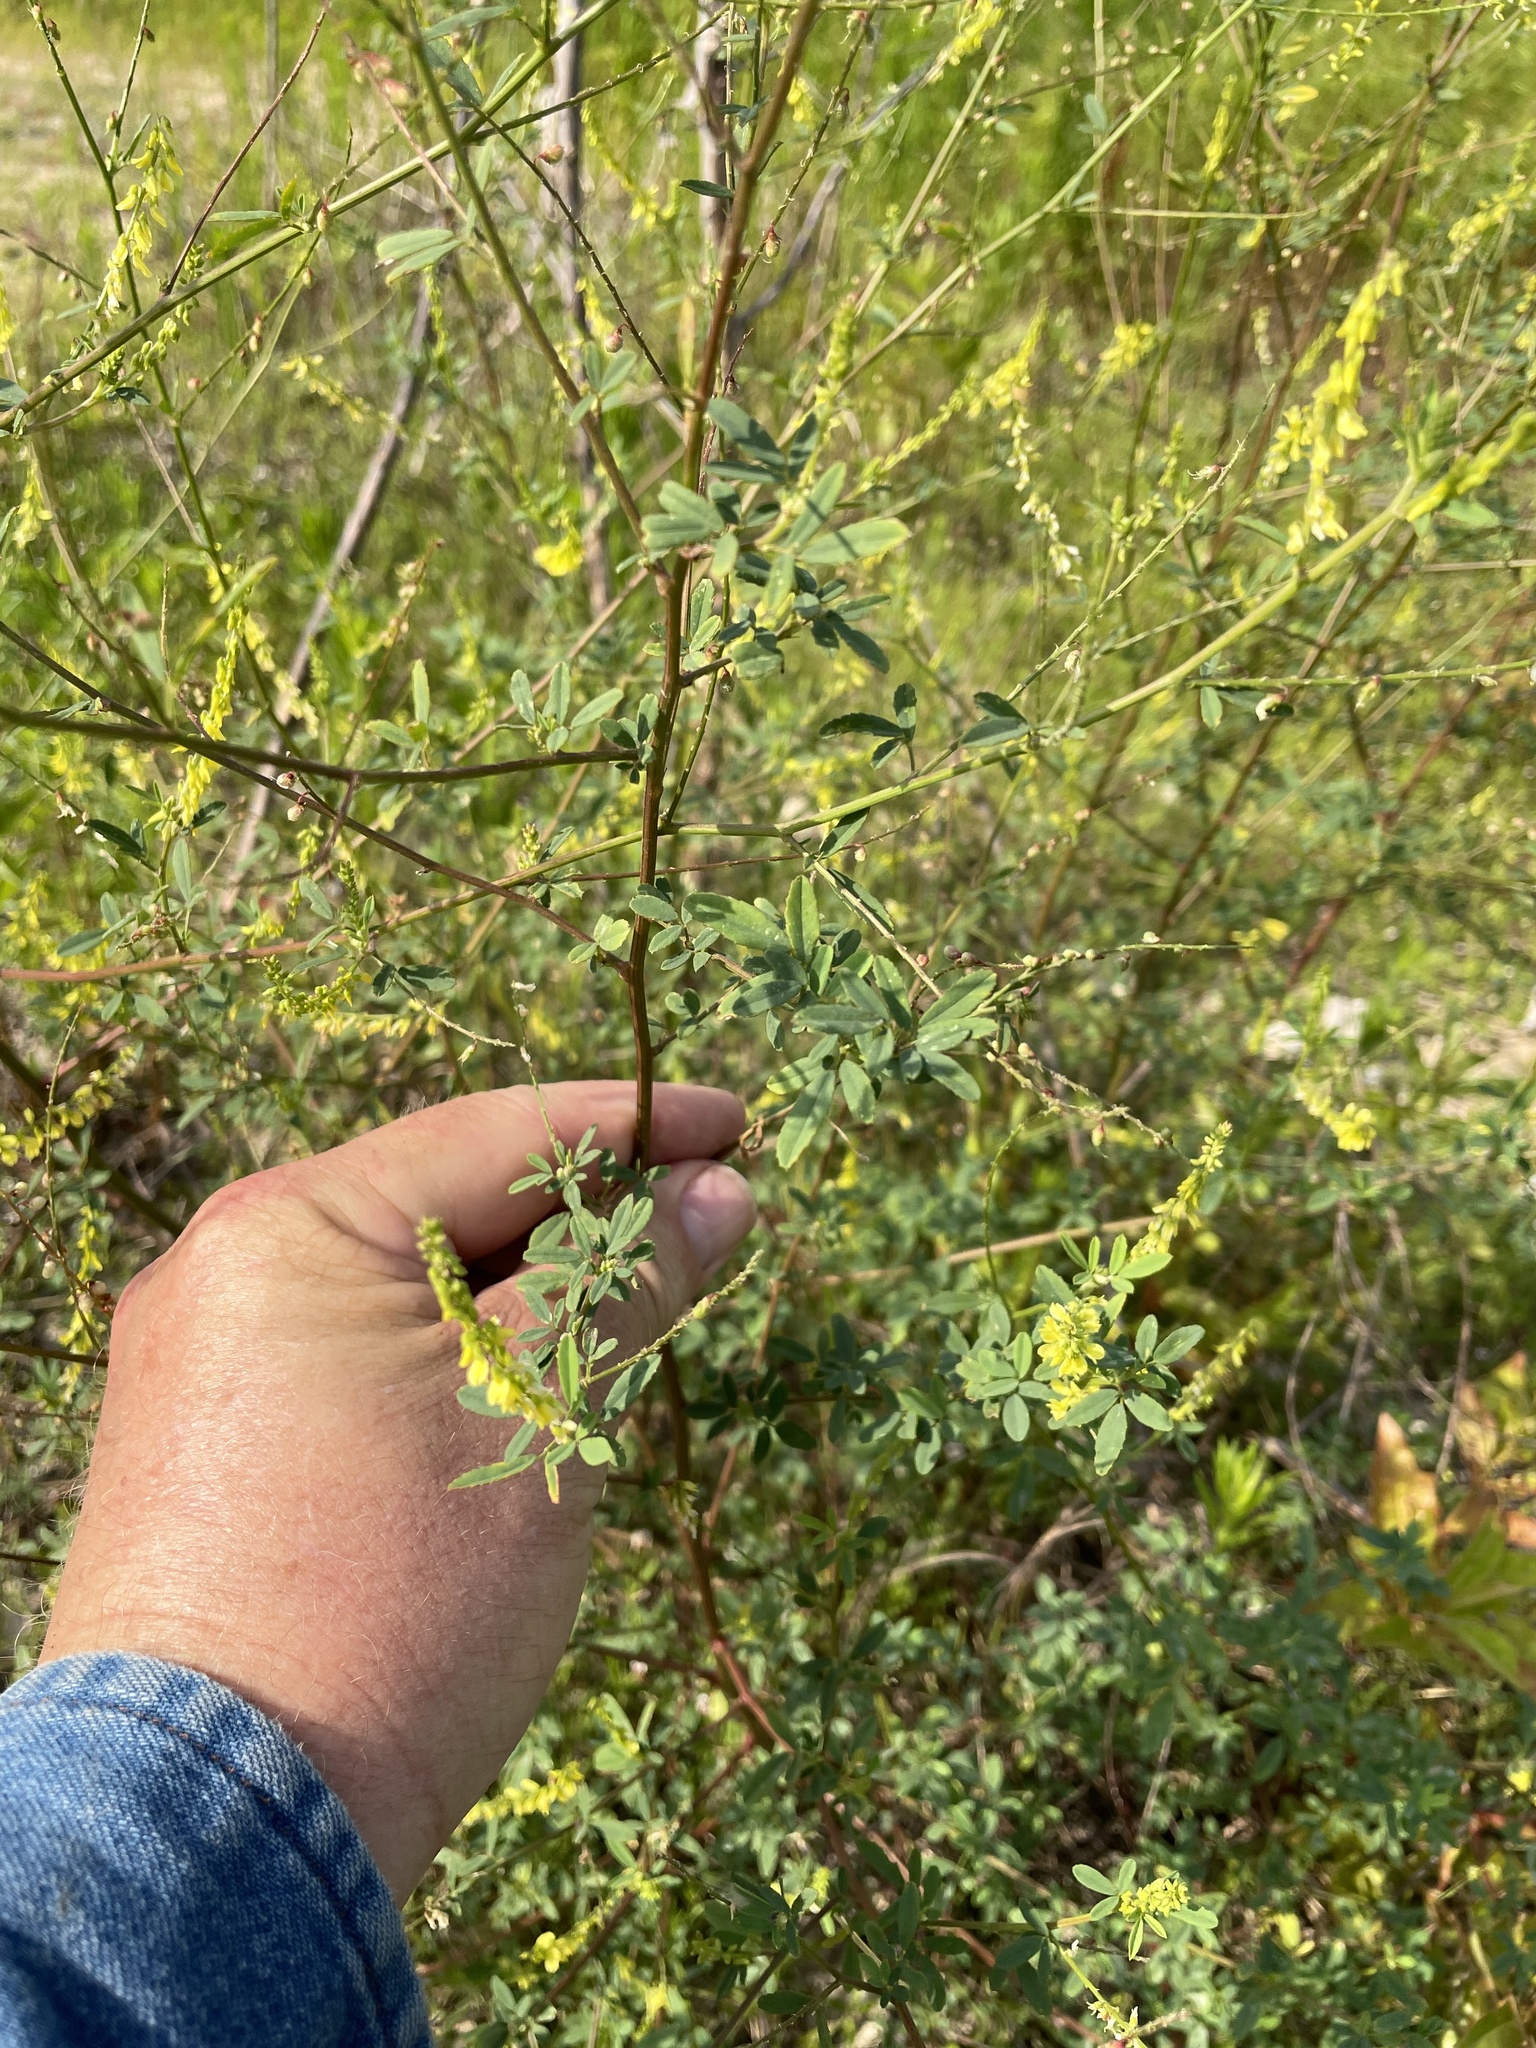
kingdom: Plantae
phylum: Tracheophyta
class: Magnoliopsida
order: Fabales
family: Fabaceae
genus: Melilotus
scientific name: Melilotus officinalis
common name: Sweetclover
